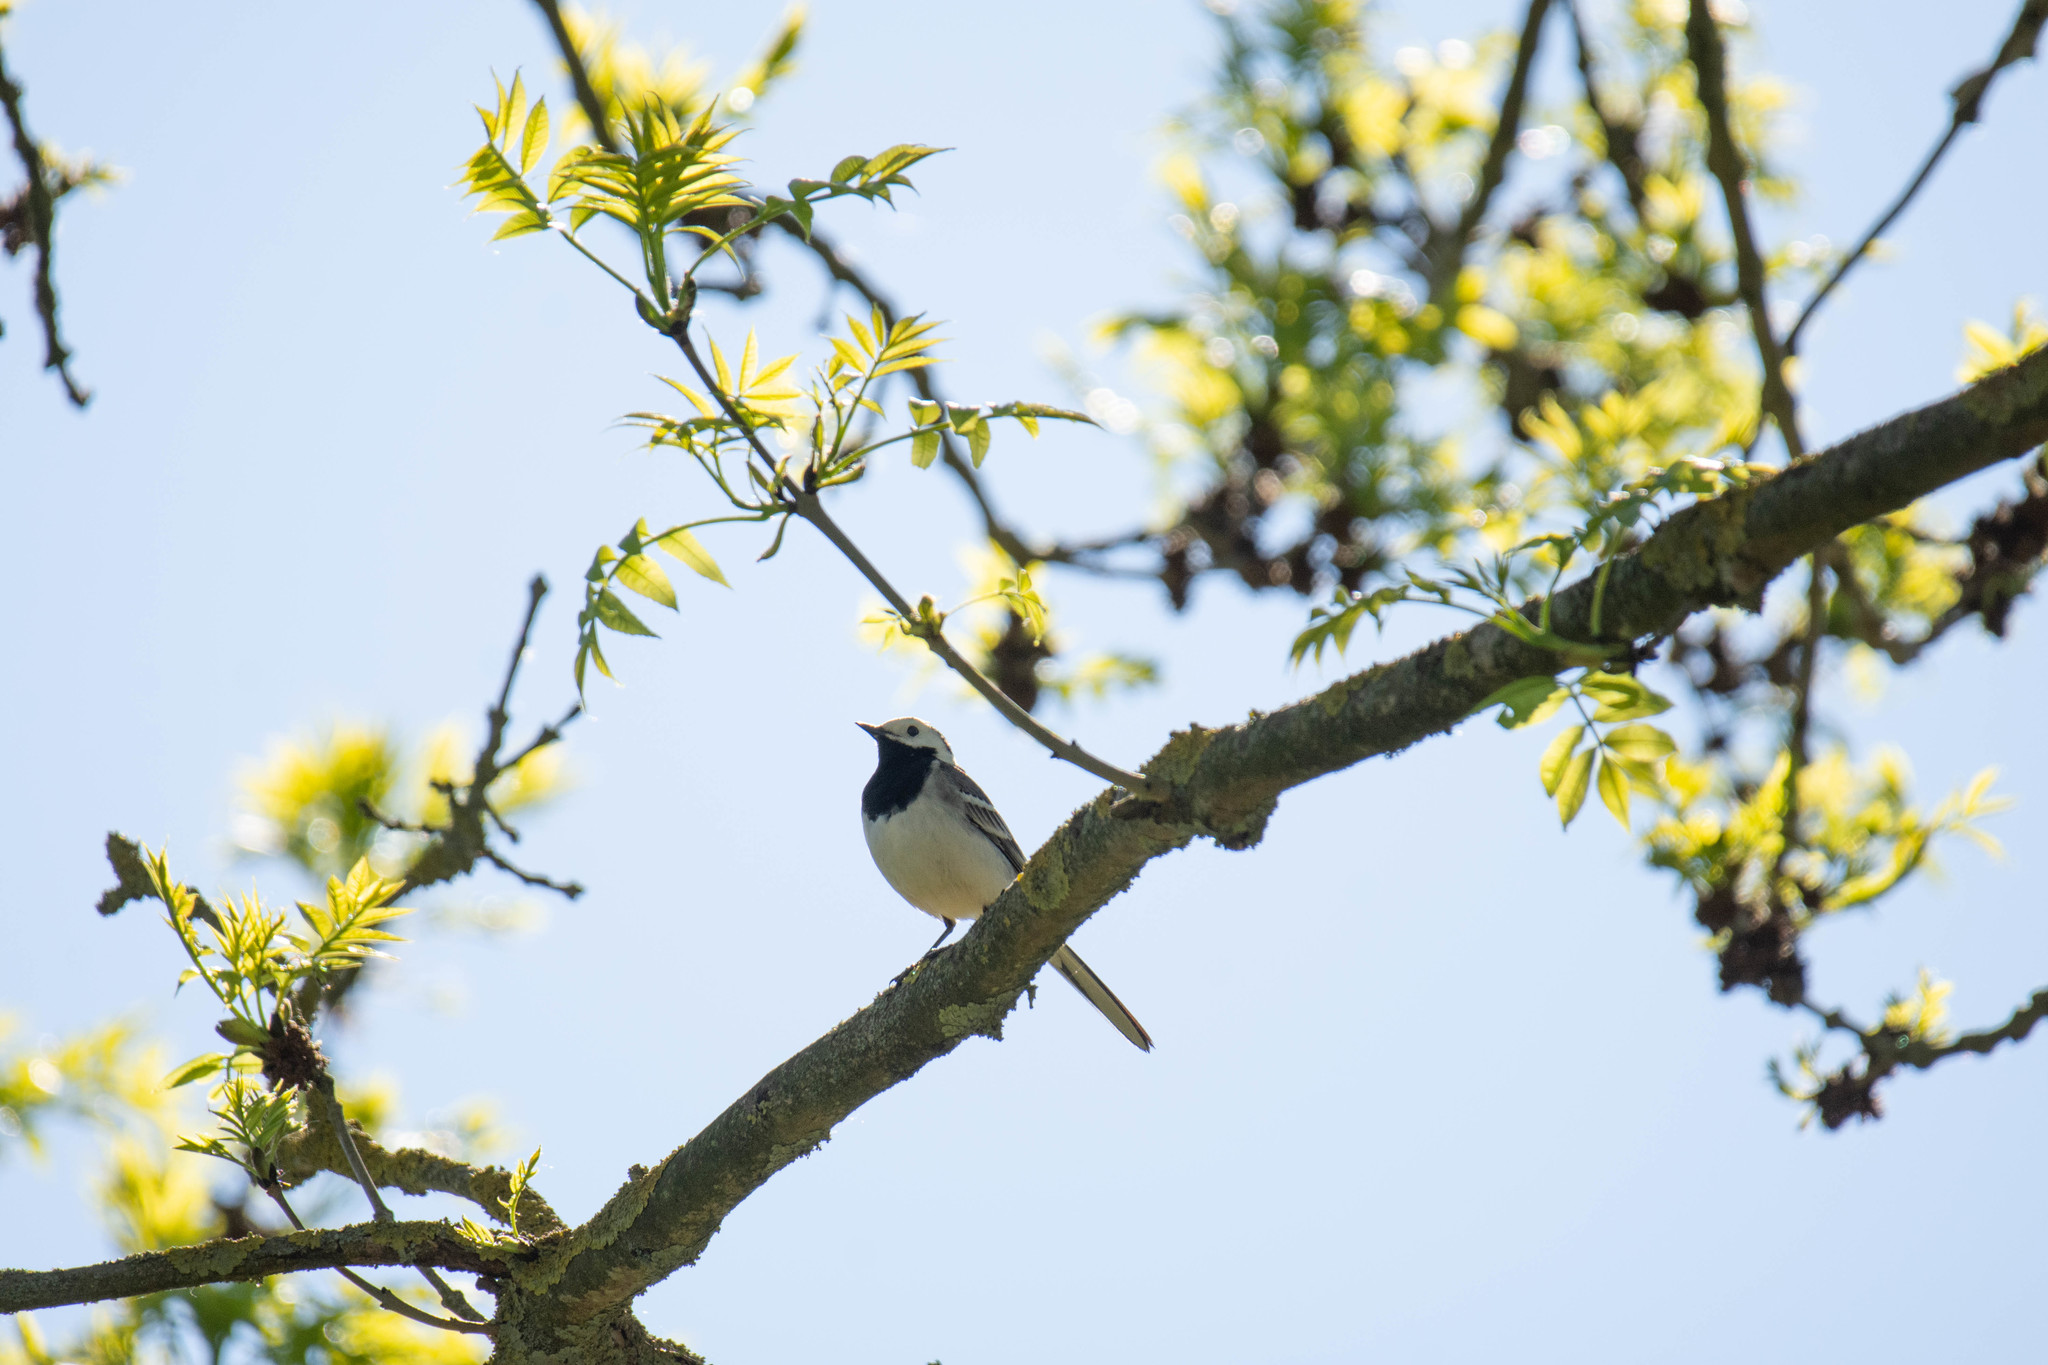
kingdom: Animalia
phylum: Chordata
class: Aves
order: Passeriformes
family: Motacillidae
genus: Motacilla
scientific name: Motacilla alba
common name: White wagtail
